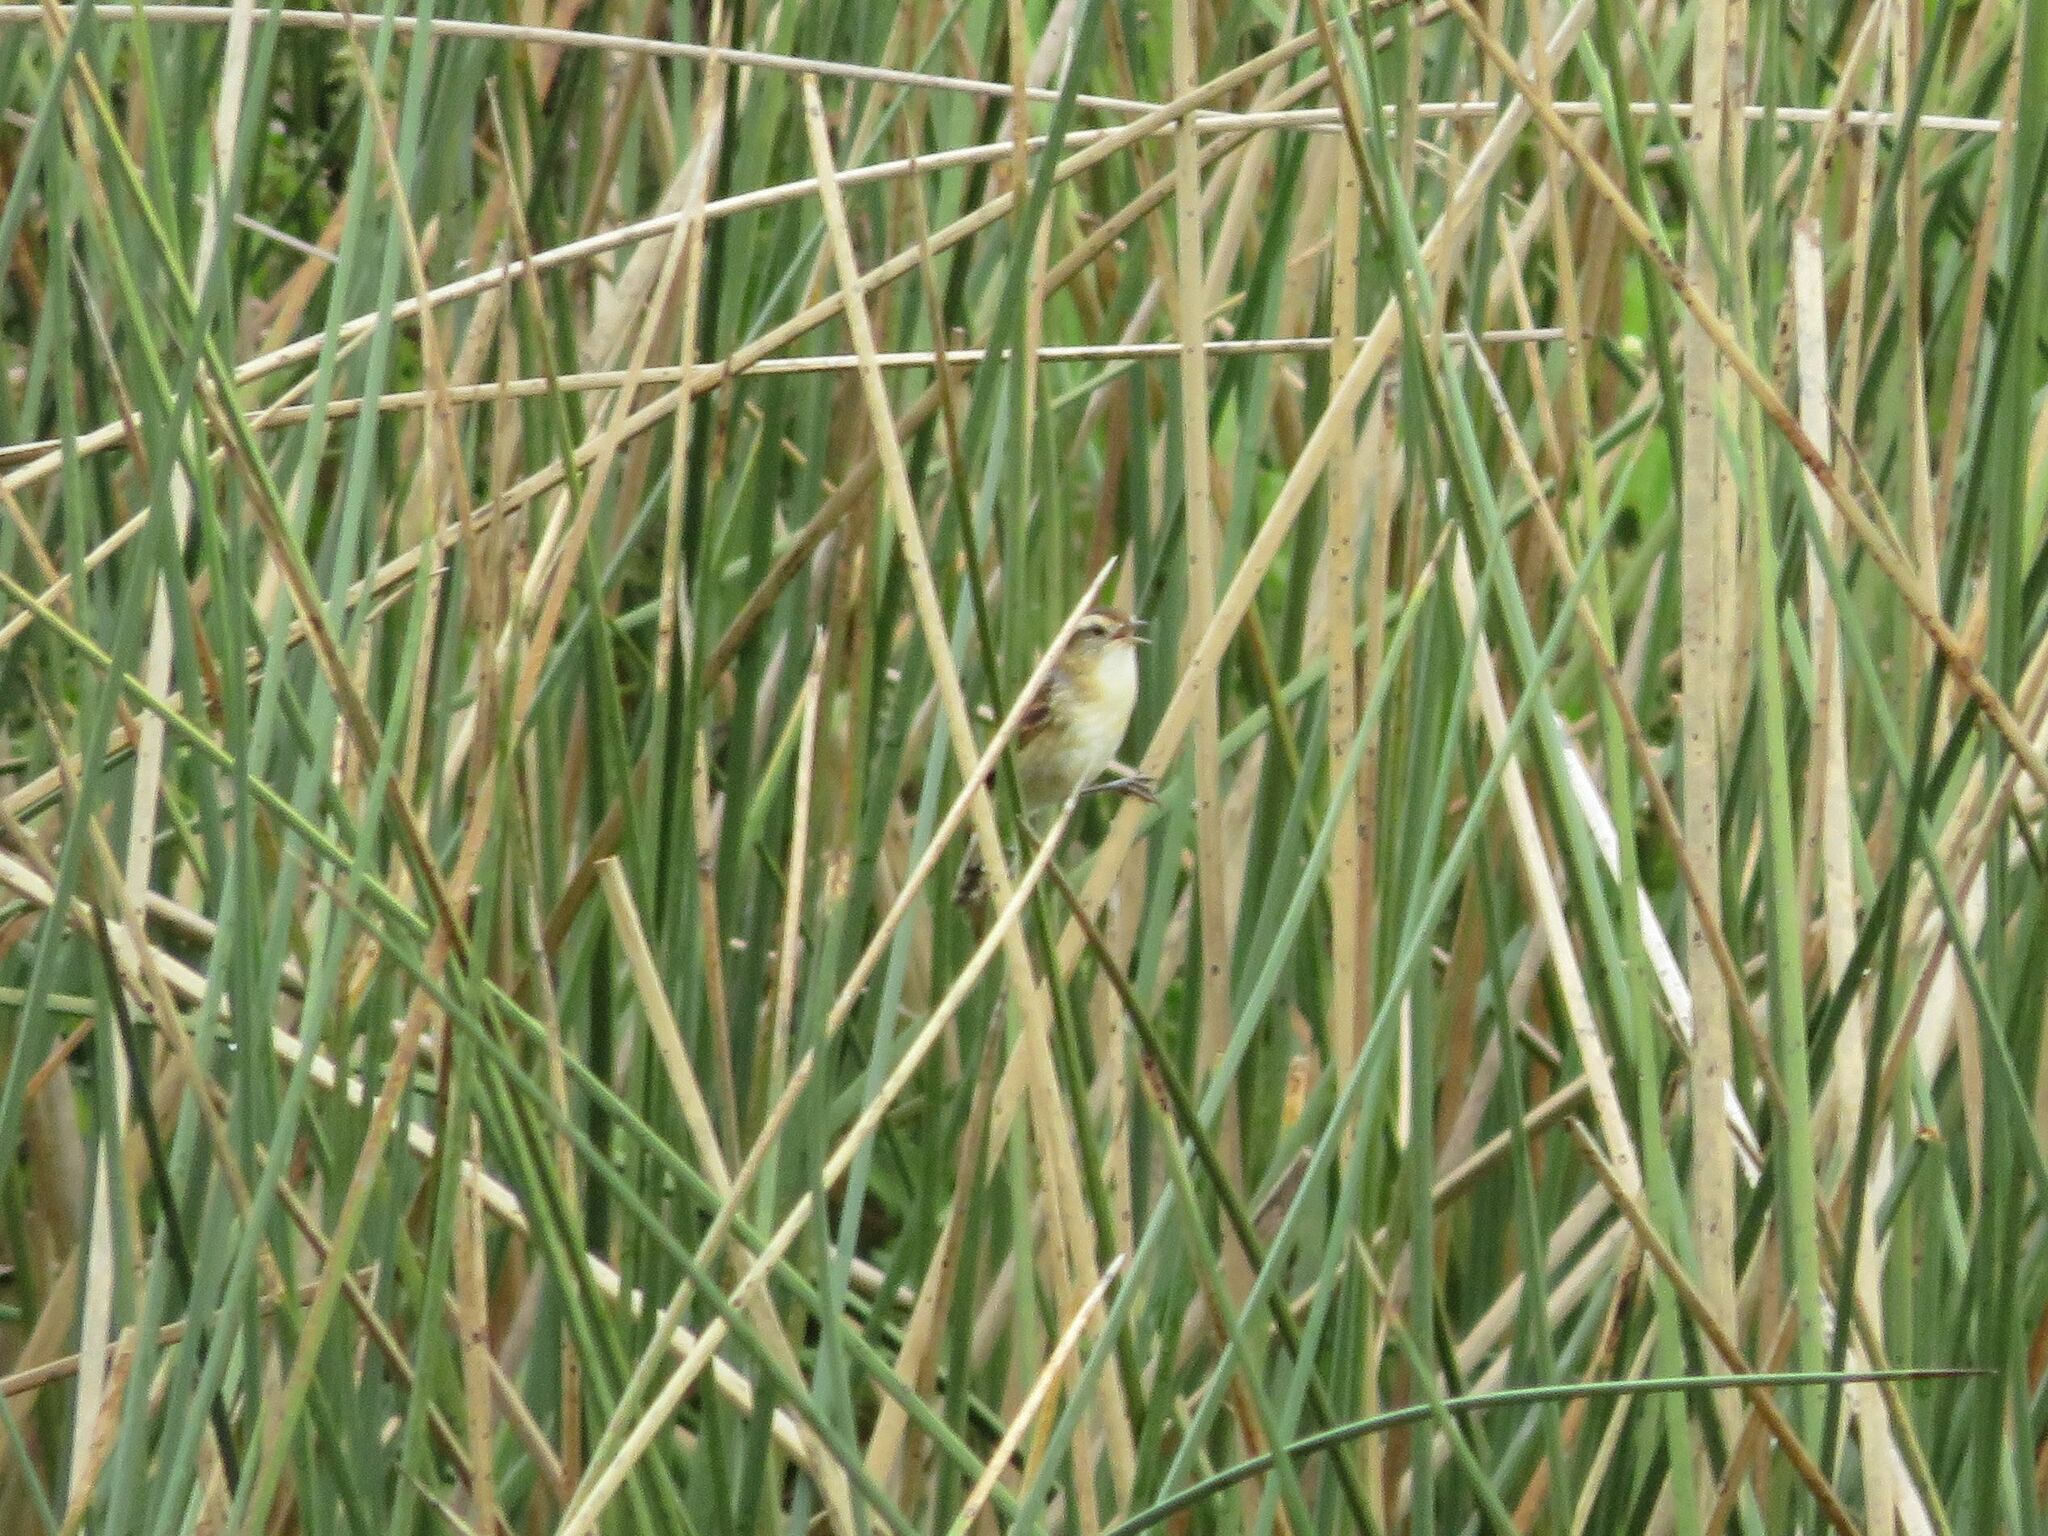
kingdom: Animalia
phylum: Chordata
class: Aves
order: Passeriformes
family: Furnariidae
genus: Phleocryptes
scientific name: Phleocryptes melanops
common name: Wren-like rushbird
